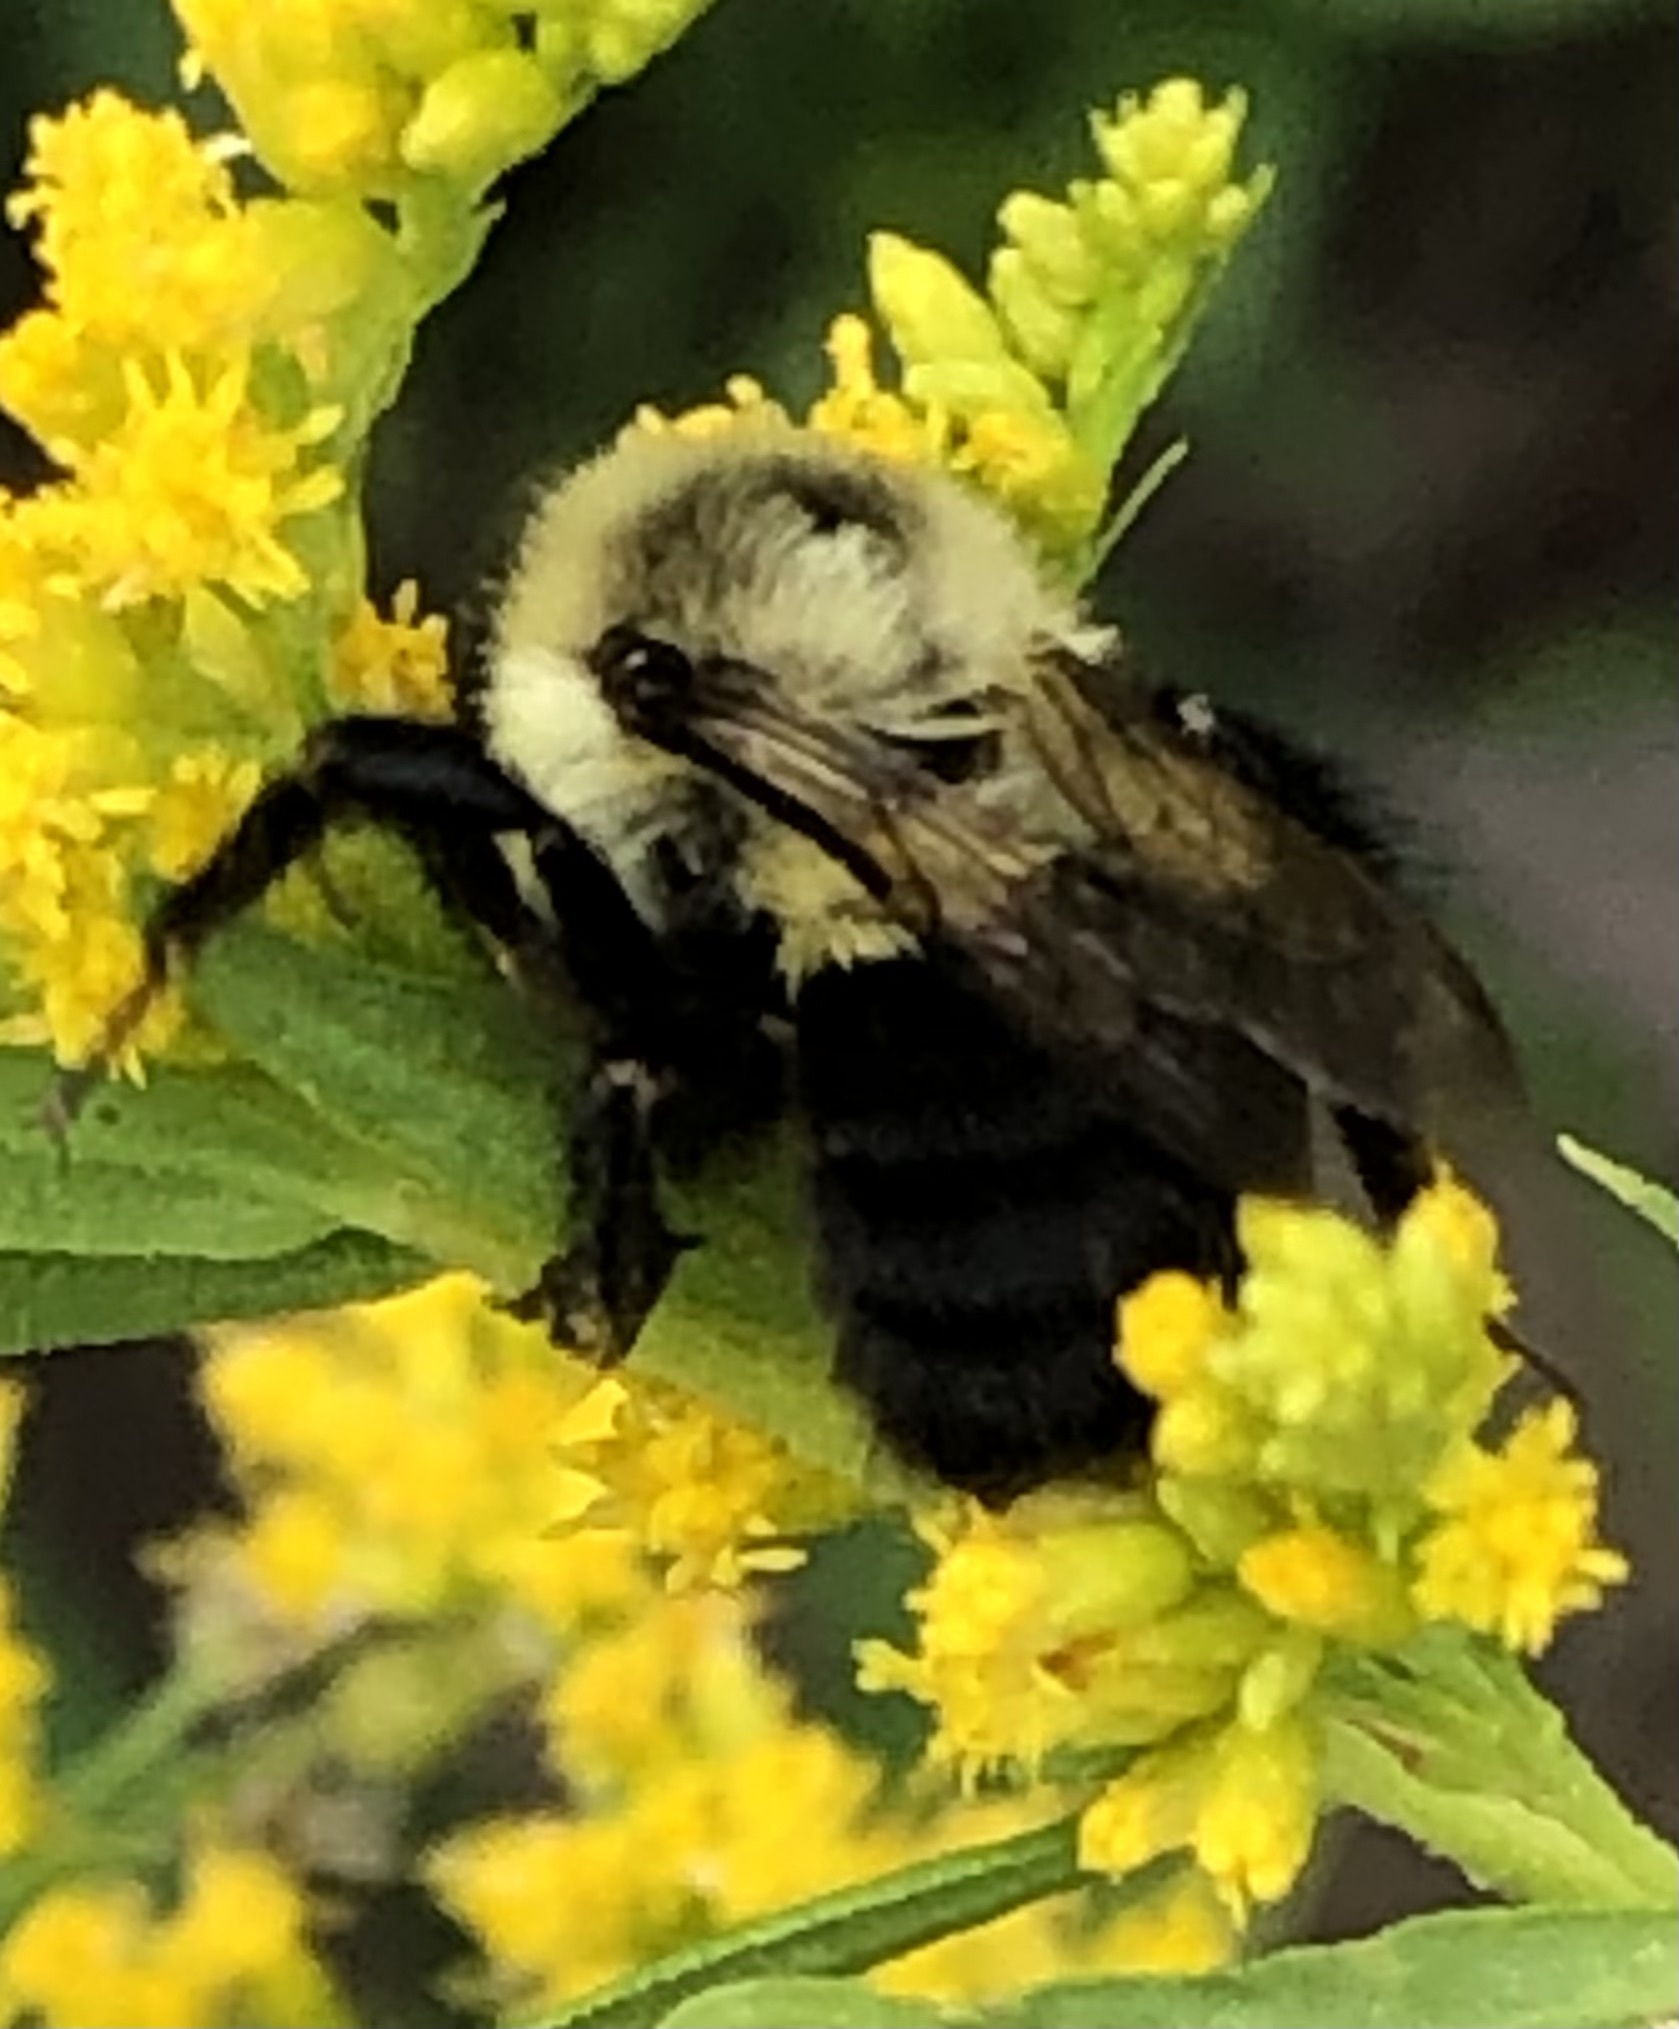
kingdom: Animalia
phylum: Arthropoda
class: Insecta
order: Hymenoptera
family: Apidae
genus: Bombus
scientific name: Bombus impatiens
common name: Common eastern bumble bee
